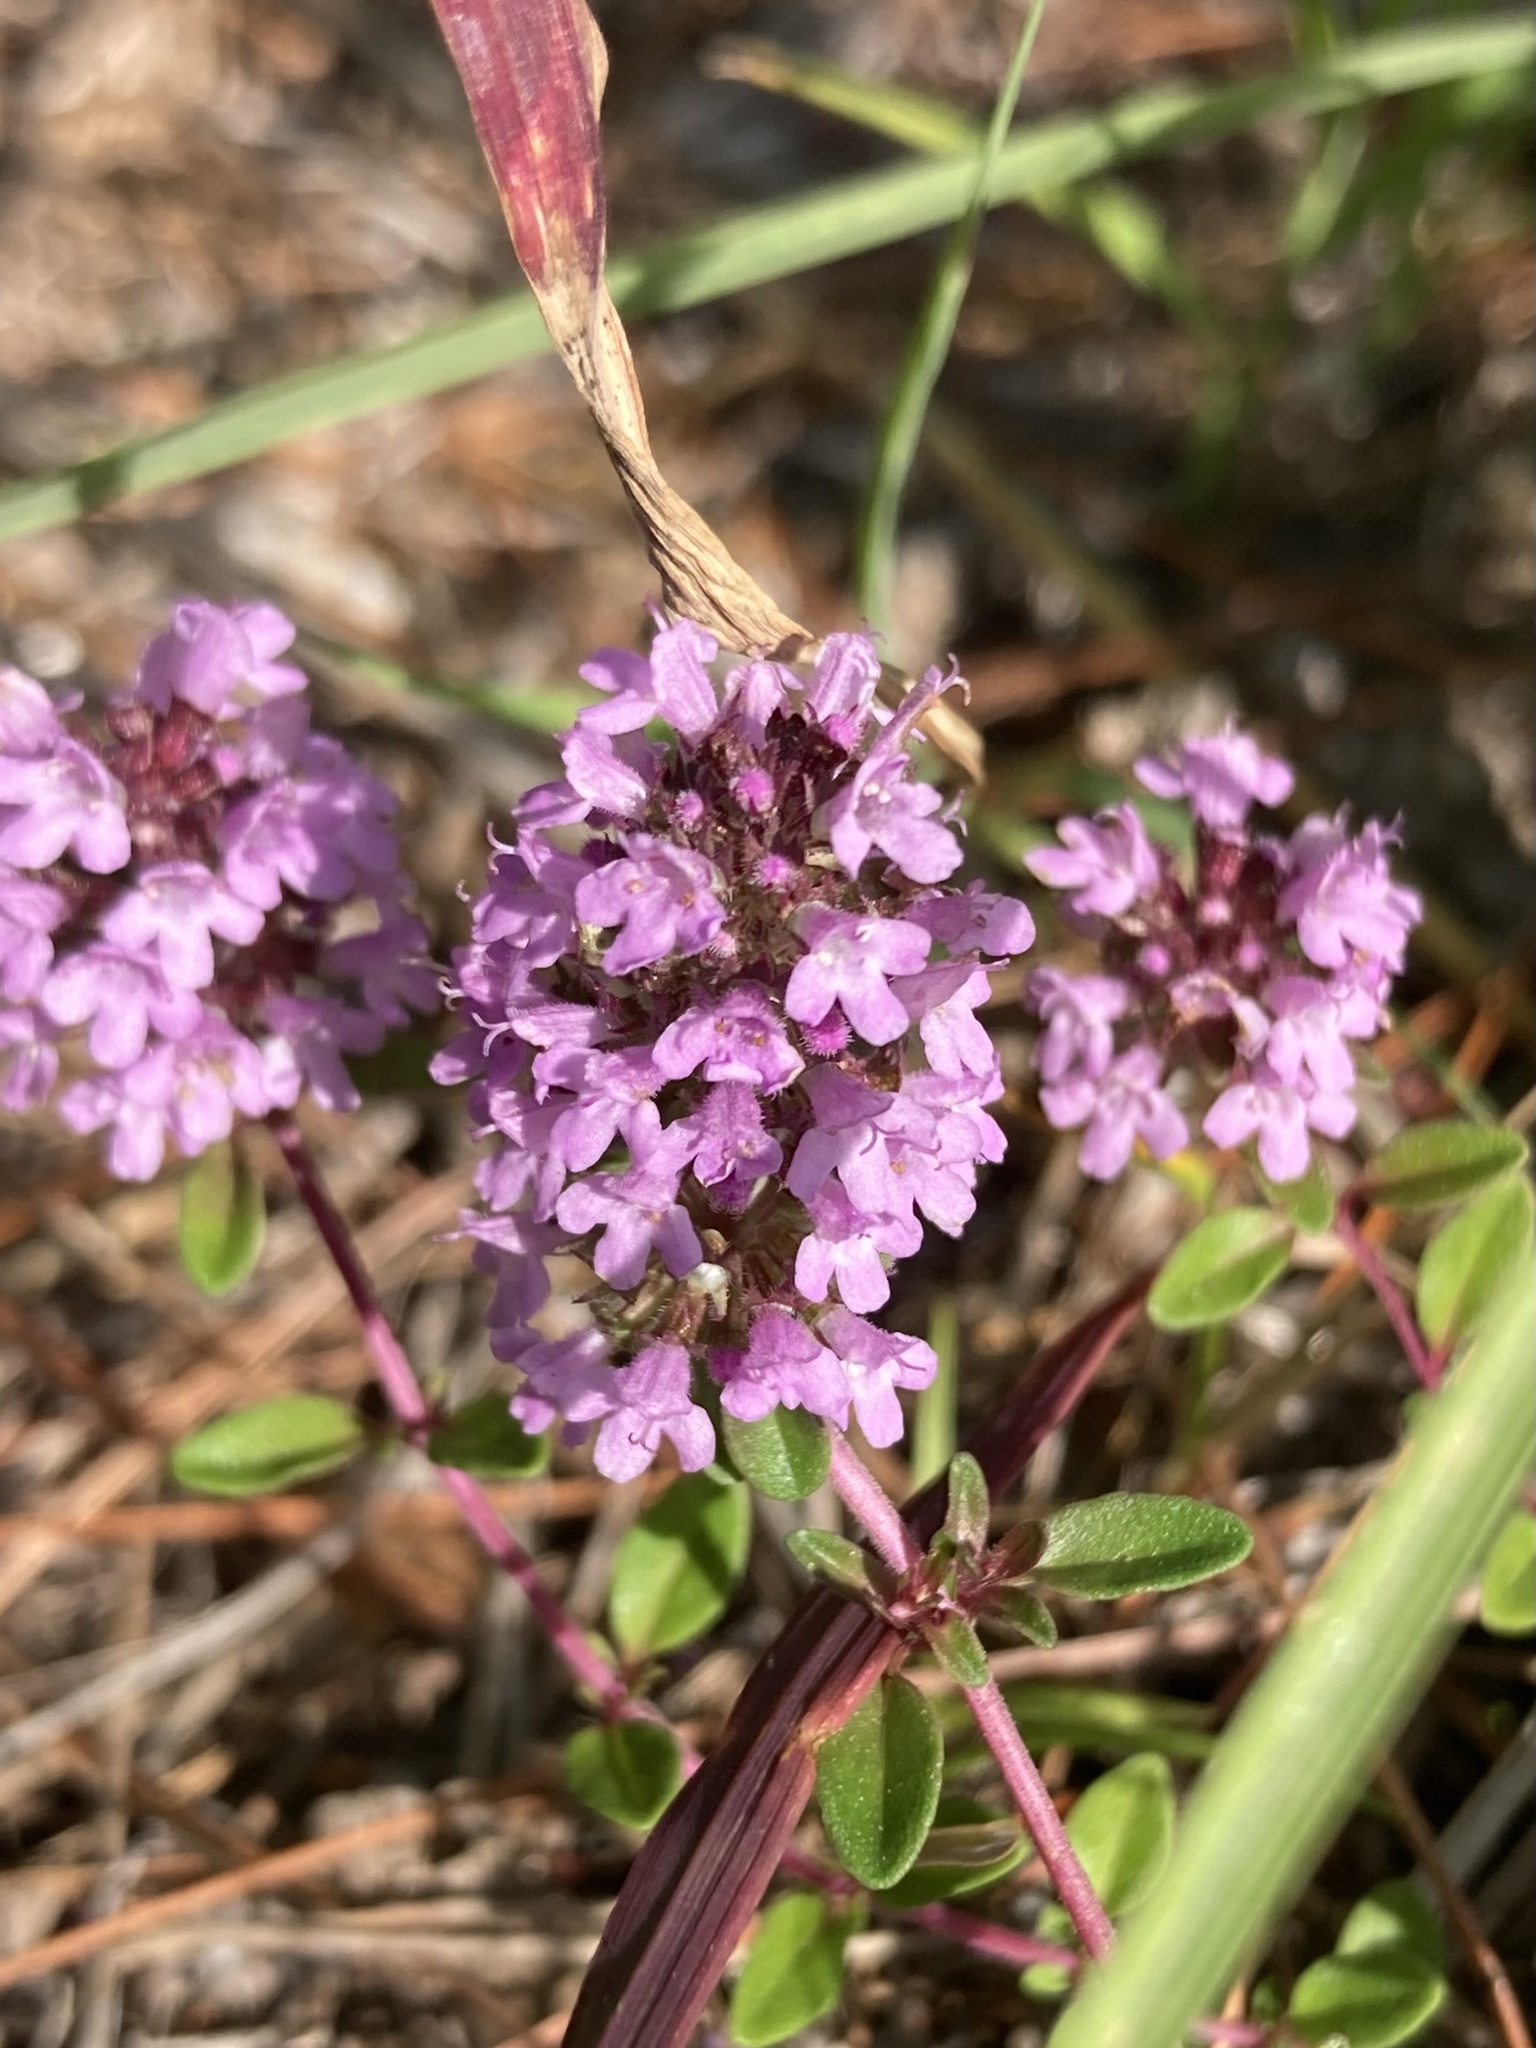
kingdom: Plantae
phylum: Tracheophyta
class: Magnoliopsida
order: Lamiales
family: Lamiaceae
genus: Thymus
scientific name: Thymus pulegioides
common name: Large thyme
